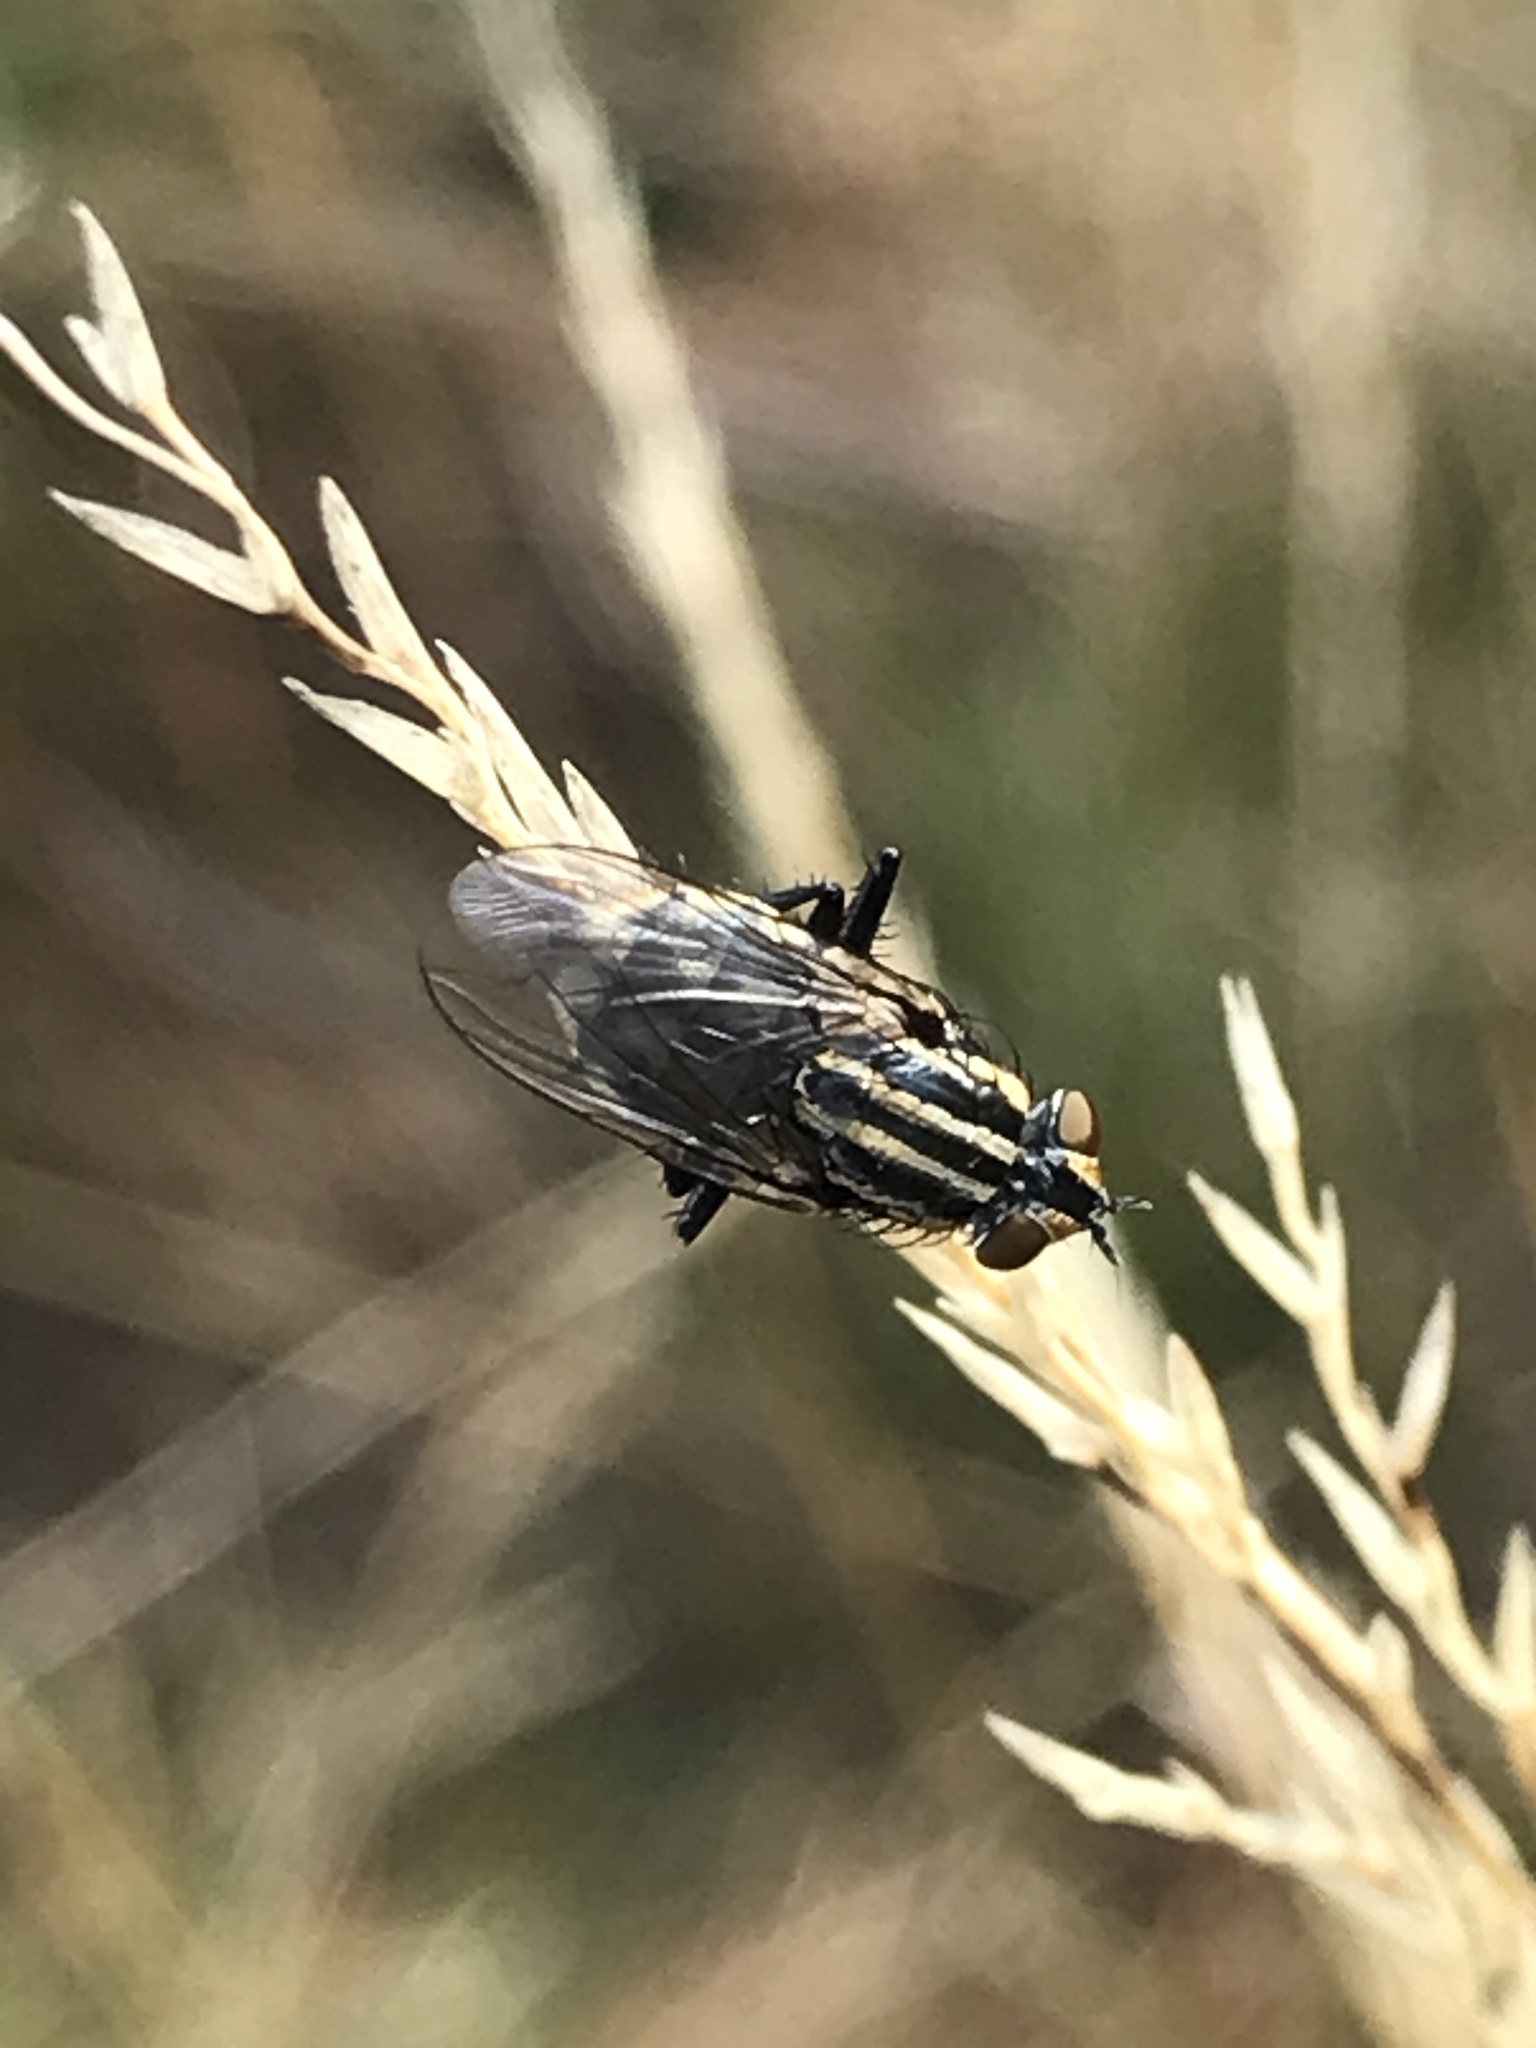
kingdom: Animalia
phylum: Arthropoda
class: Insecta
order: Diptera
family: Sarcophagidae
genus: Oxysarcodexia
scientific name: Oxysarcodexia varia
